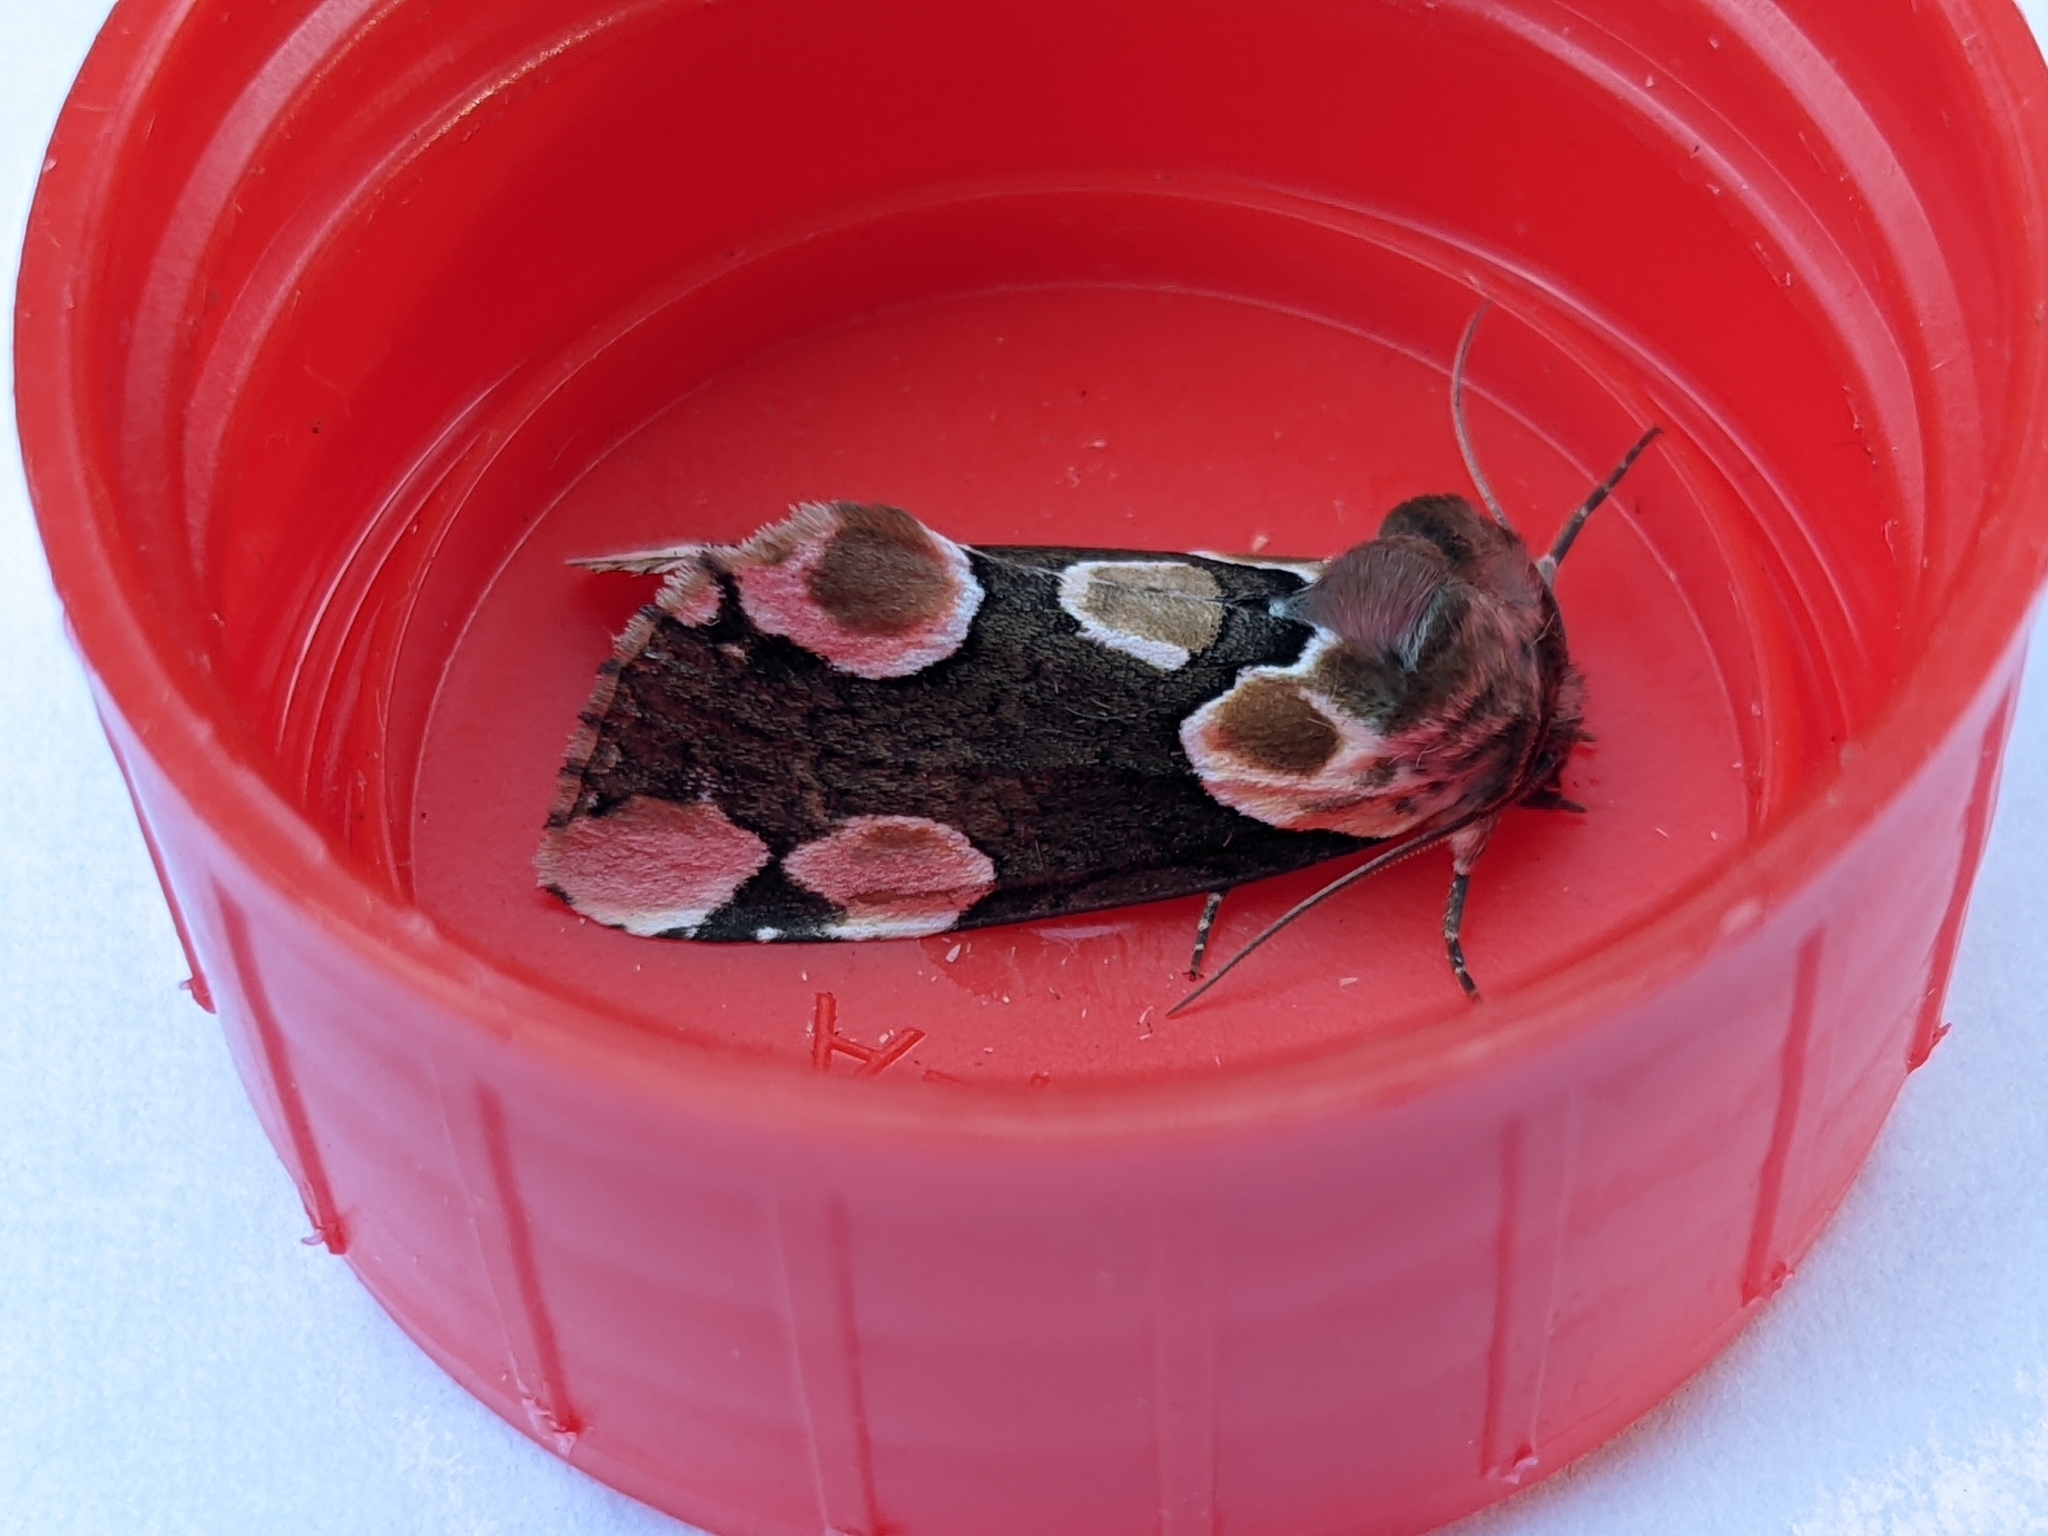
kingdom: Animalia
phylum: Arthropoda
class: Insecta
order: Lepidoptera
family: Drepanidae
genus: Thyatira
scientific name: Thyatira batis
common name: Peach blossom
